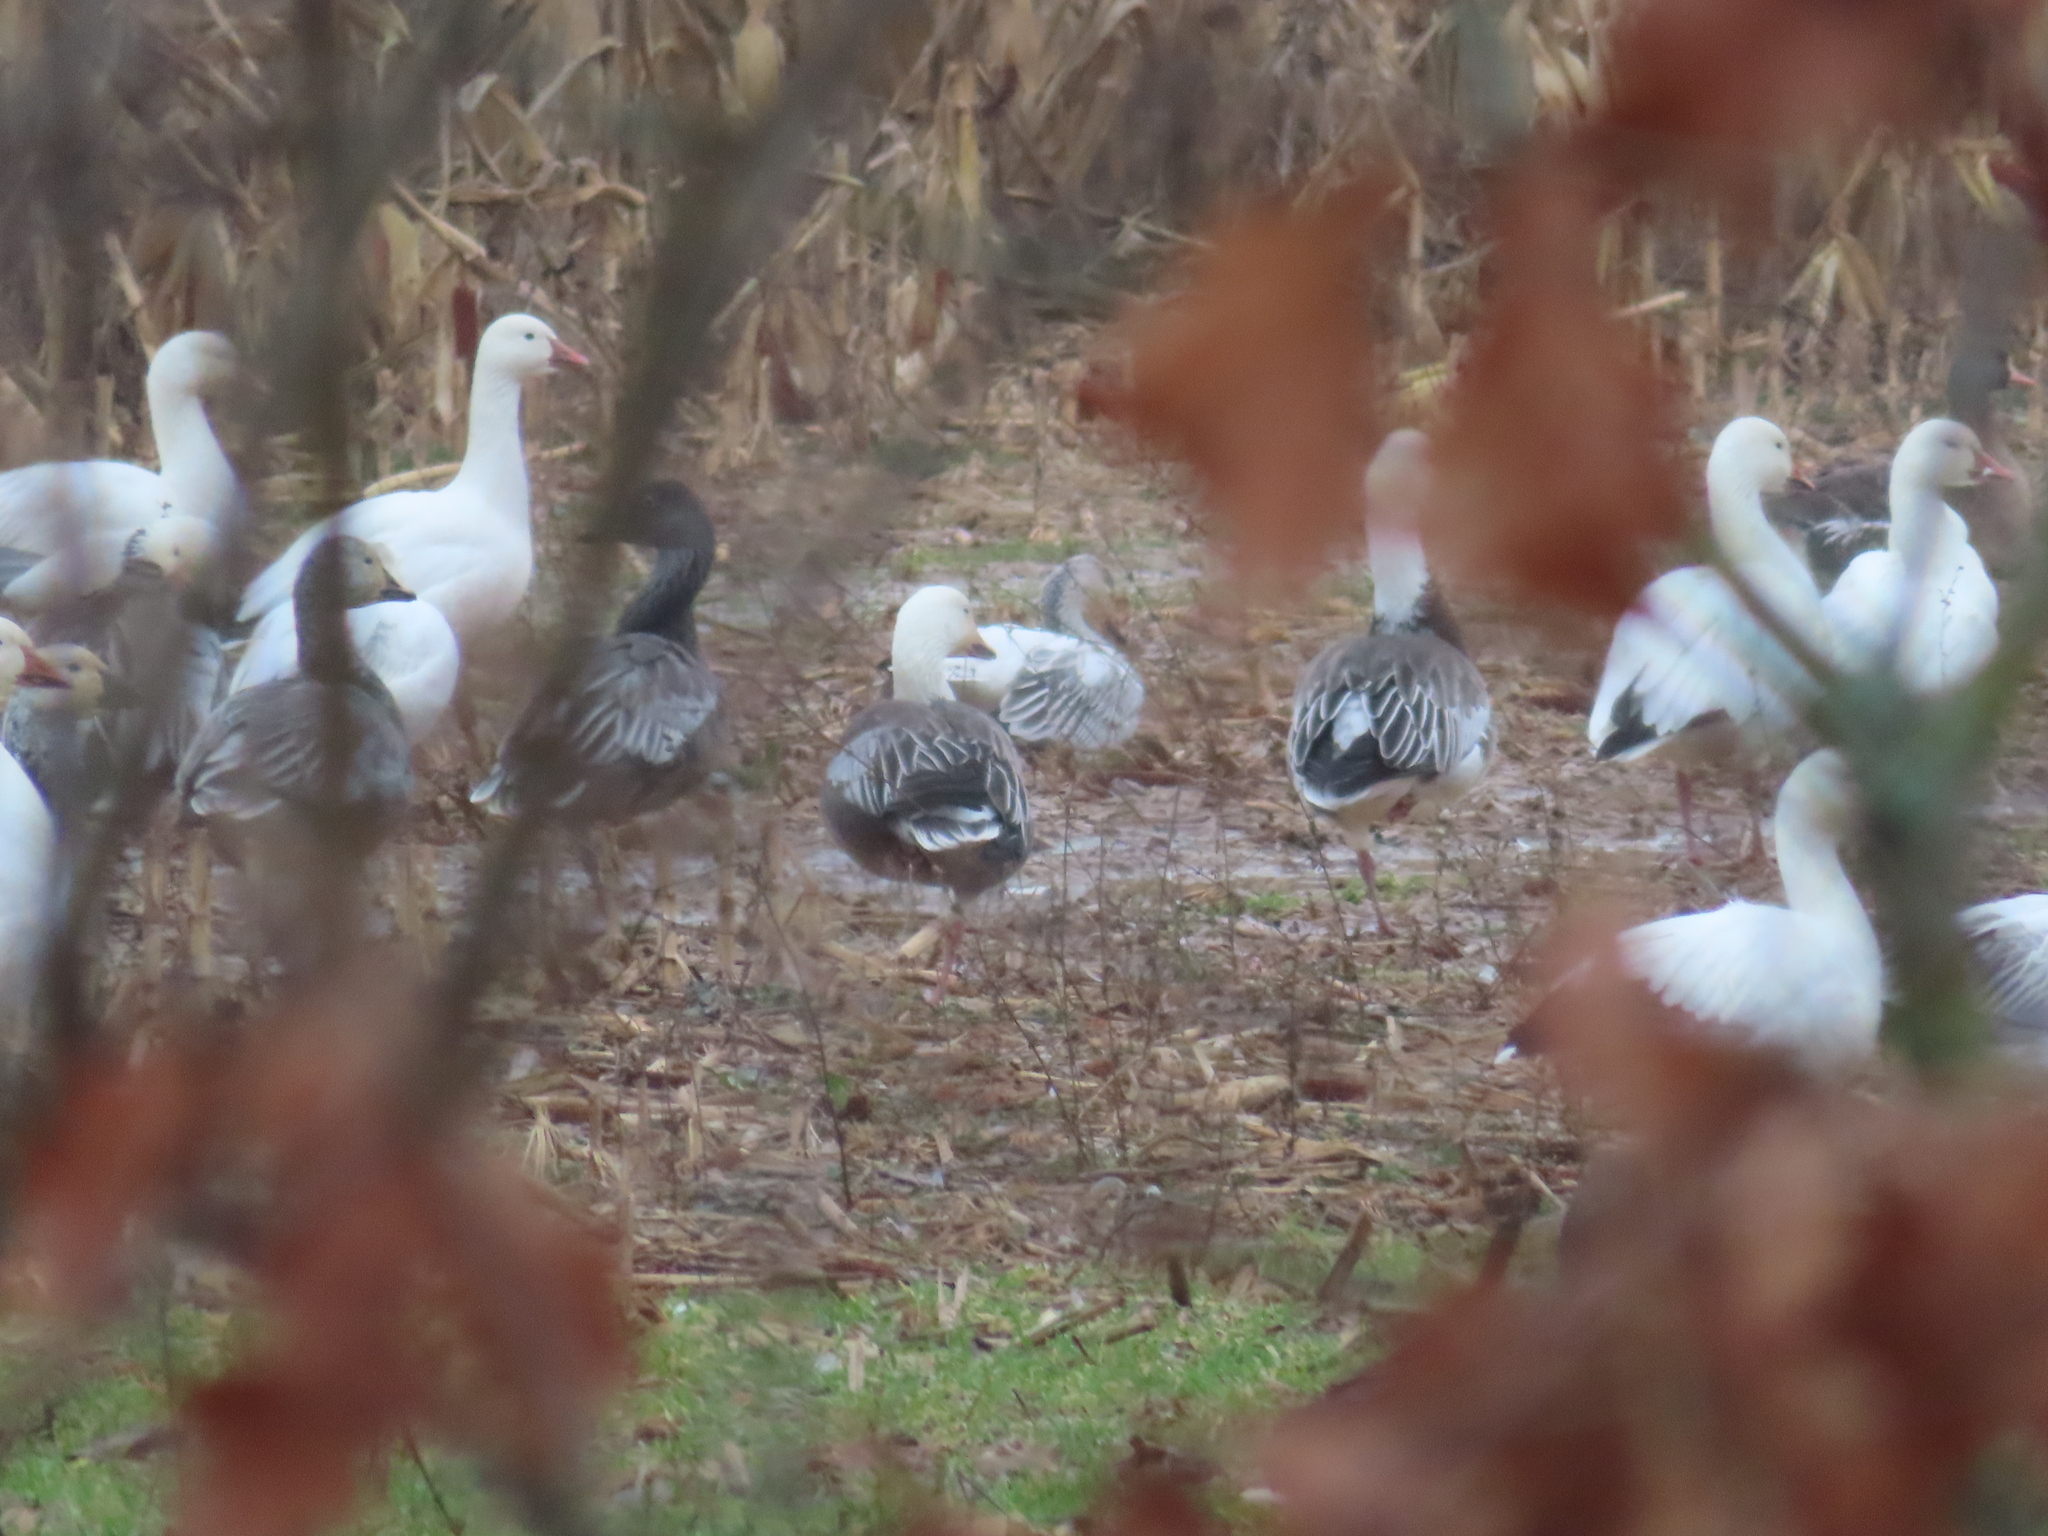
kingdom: Animalia
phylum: Chordata
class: Aves
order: Anseriformes
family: Anatidae
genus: Anser
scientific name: Anser caerulescens
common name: Snow goose
